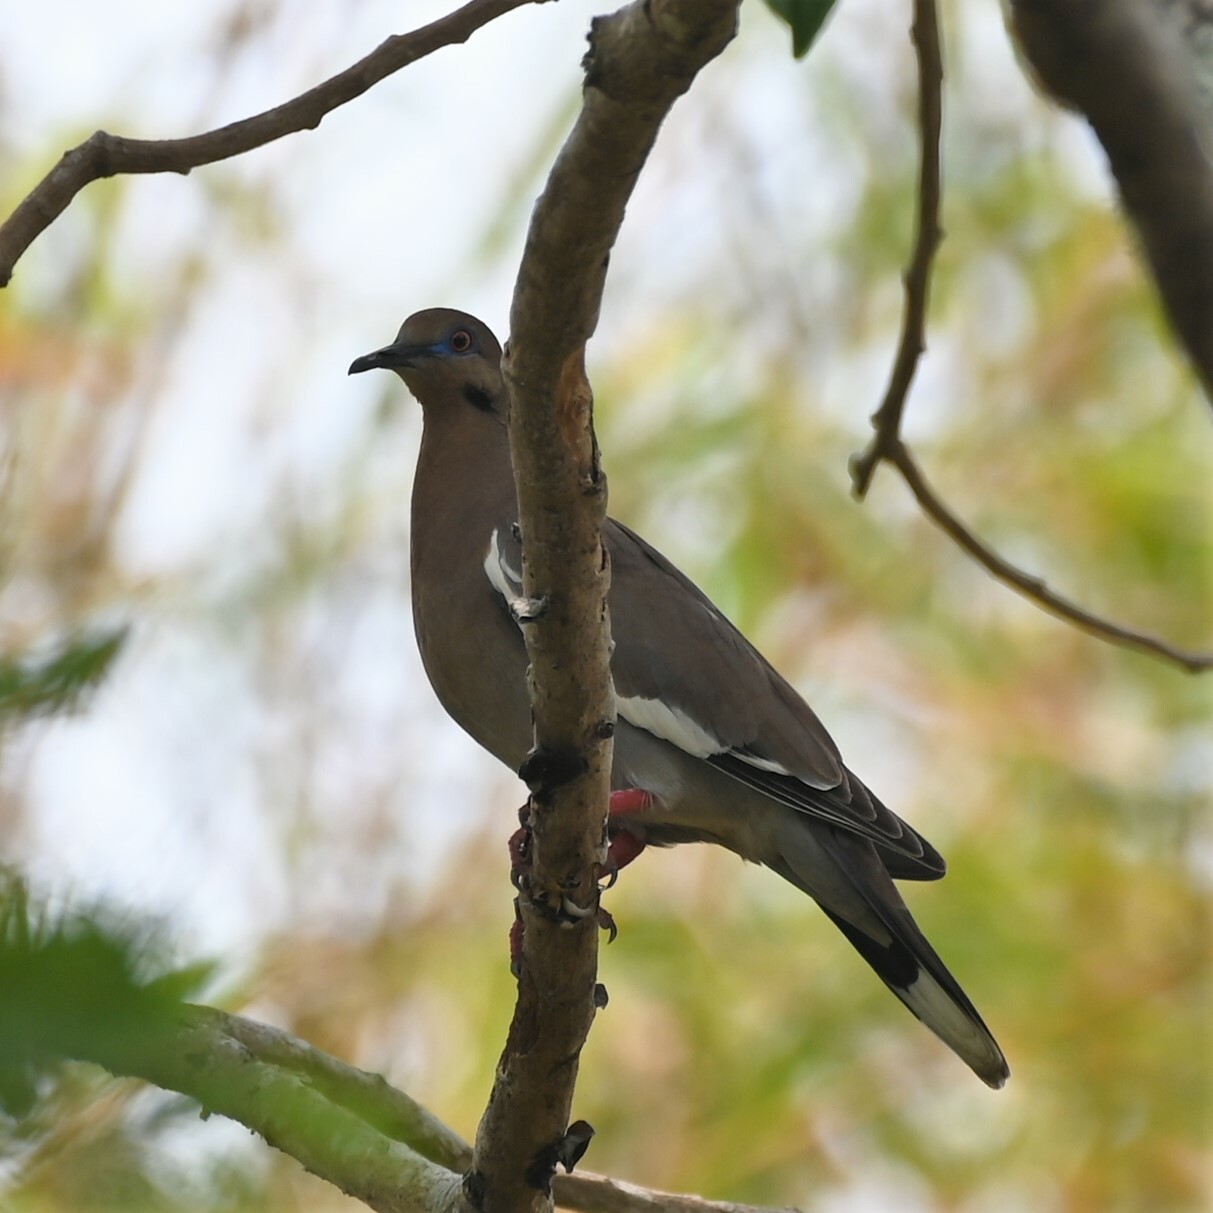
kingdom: Animalia
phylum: Chordata
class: Aves
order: Columbiformes
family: Columbidae
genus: Zenaida
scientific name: Zenaida asiatica
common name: White-winged dove
